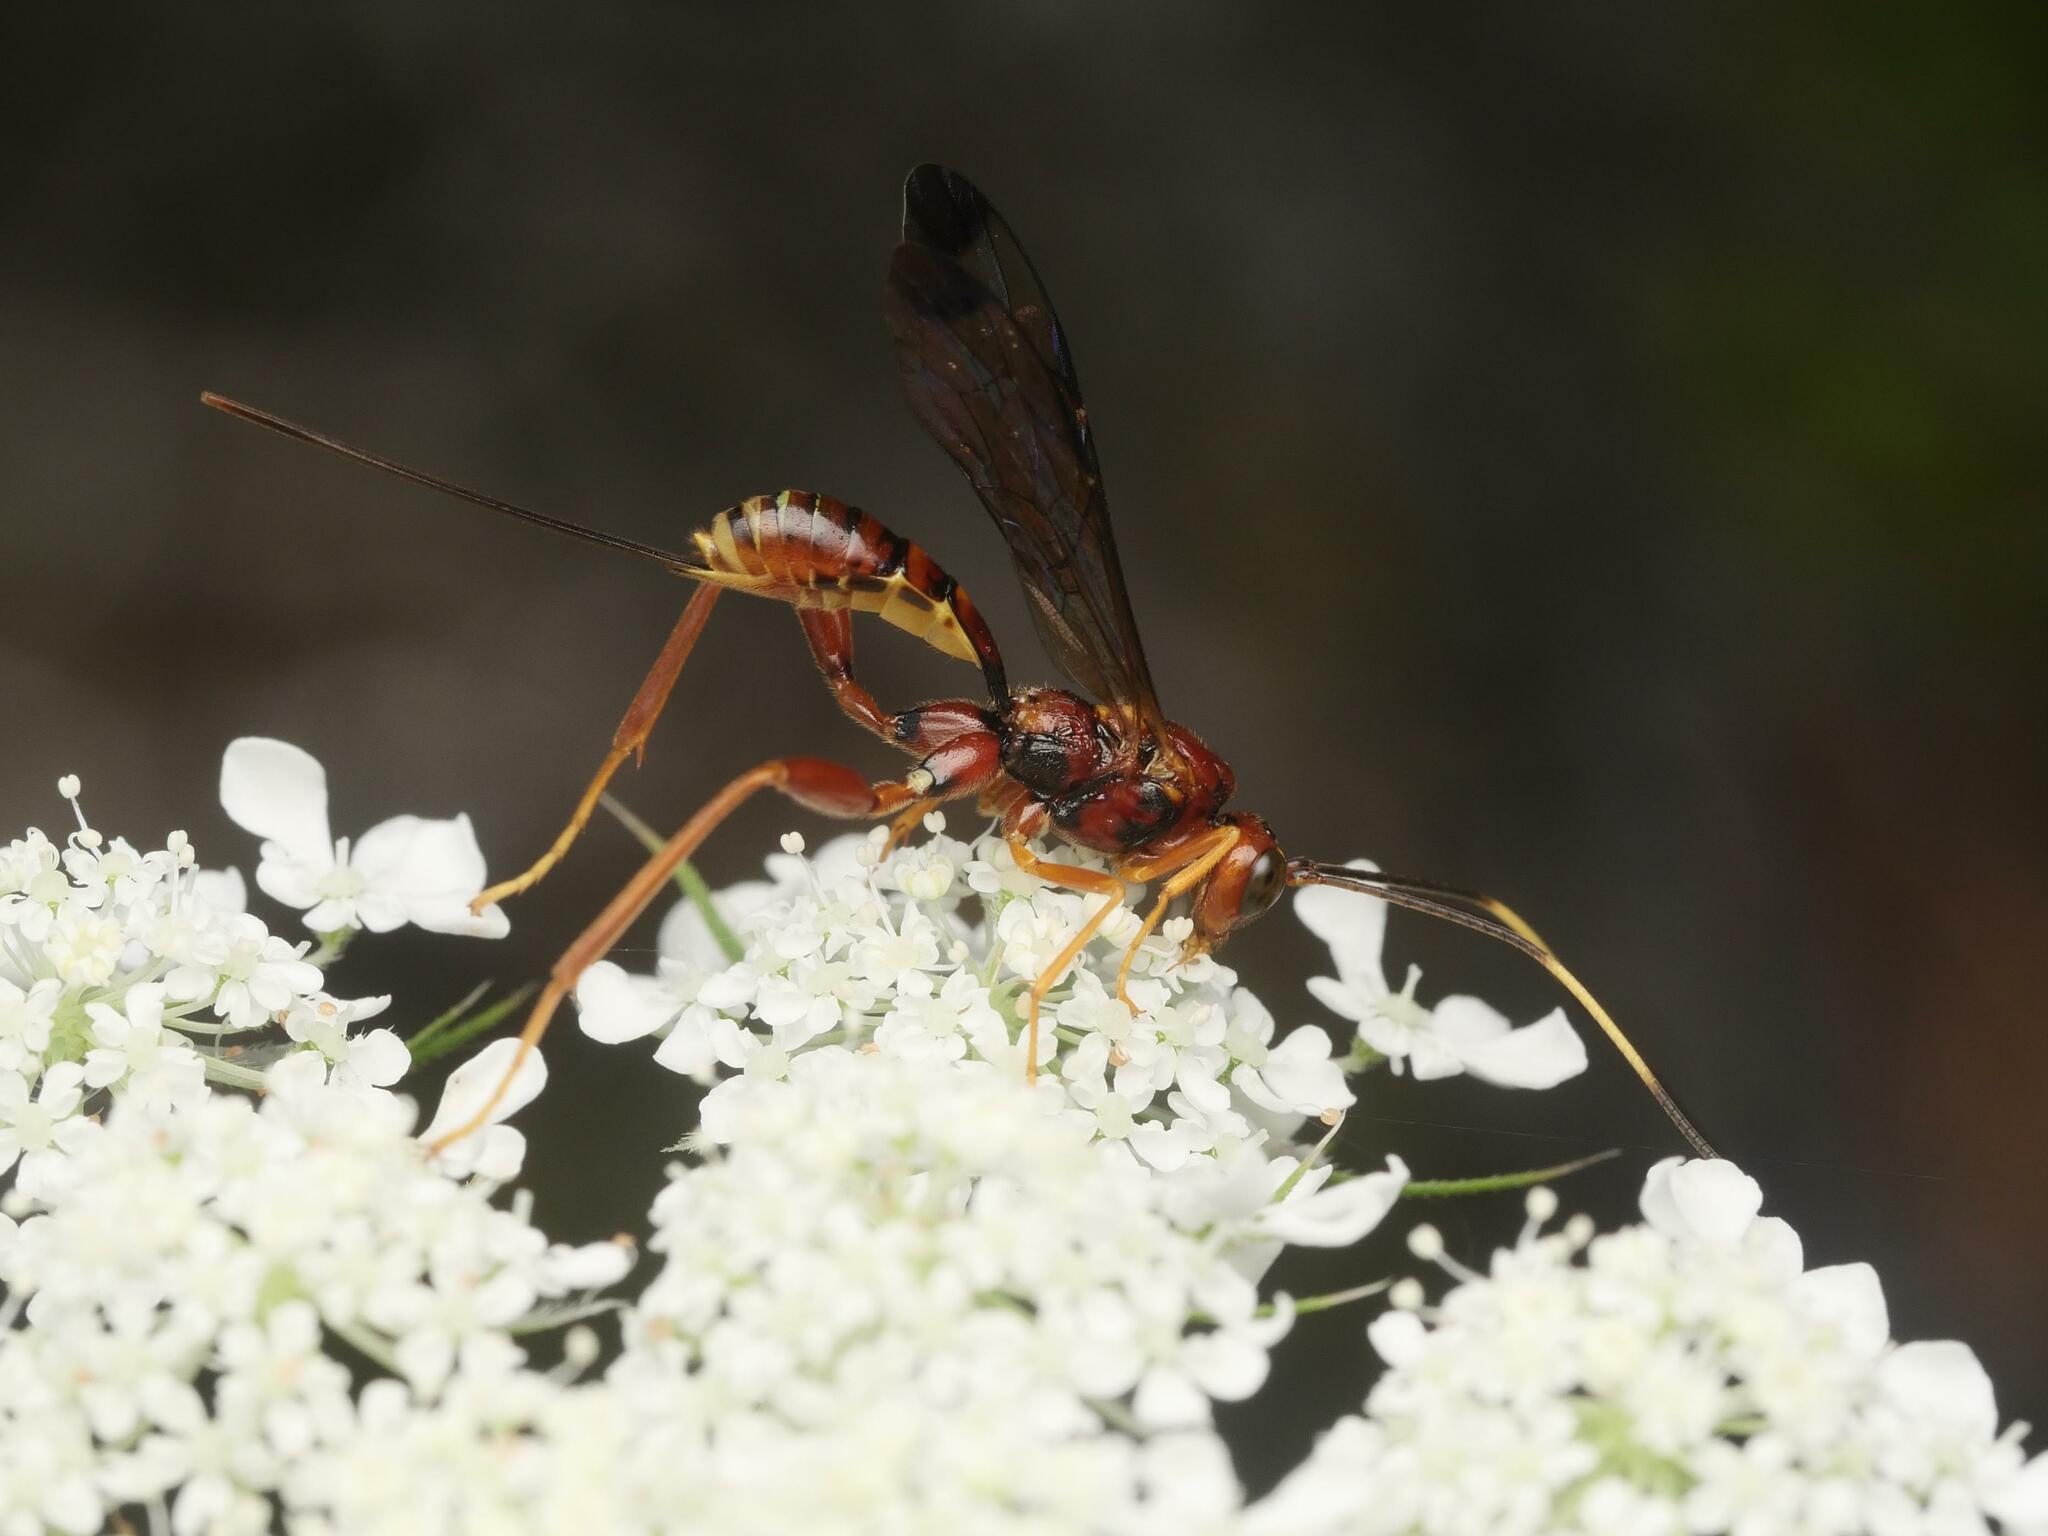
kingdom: Animalia
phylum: Arthropoda
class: Insecta
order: Hymenoptera
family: Ichneumonidae
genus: Spilopteron
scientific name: Spilopteron vicinum
